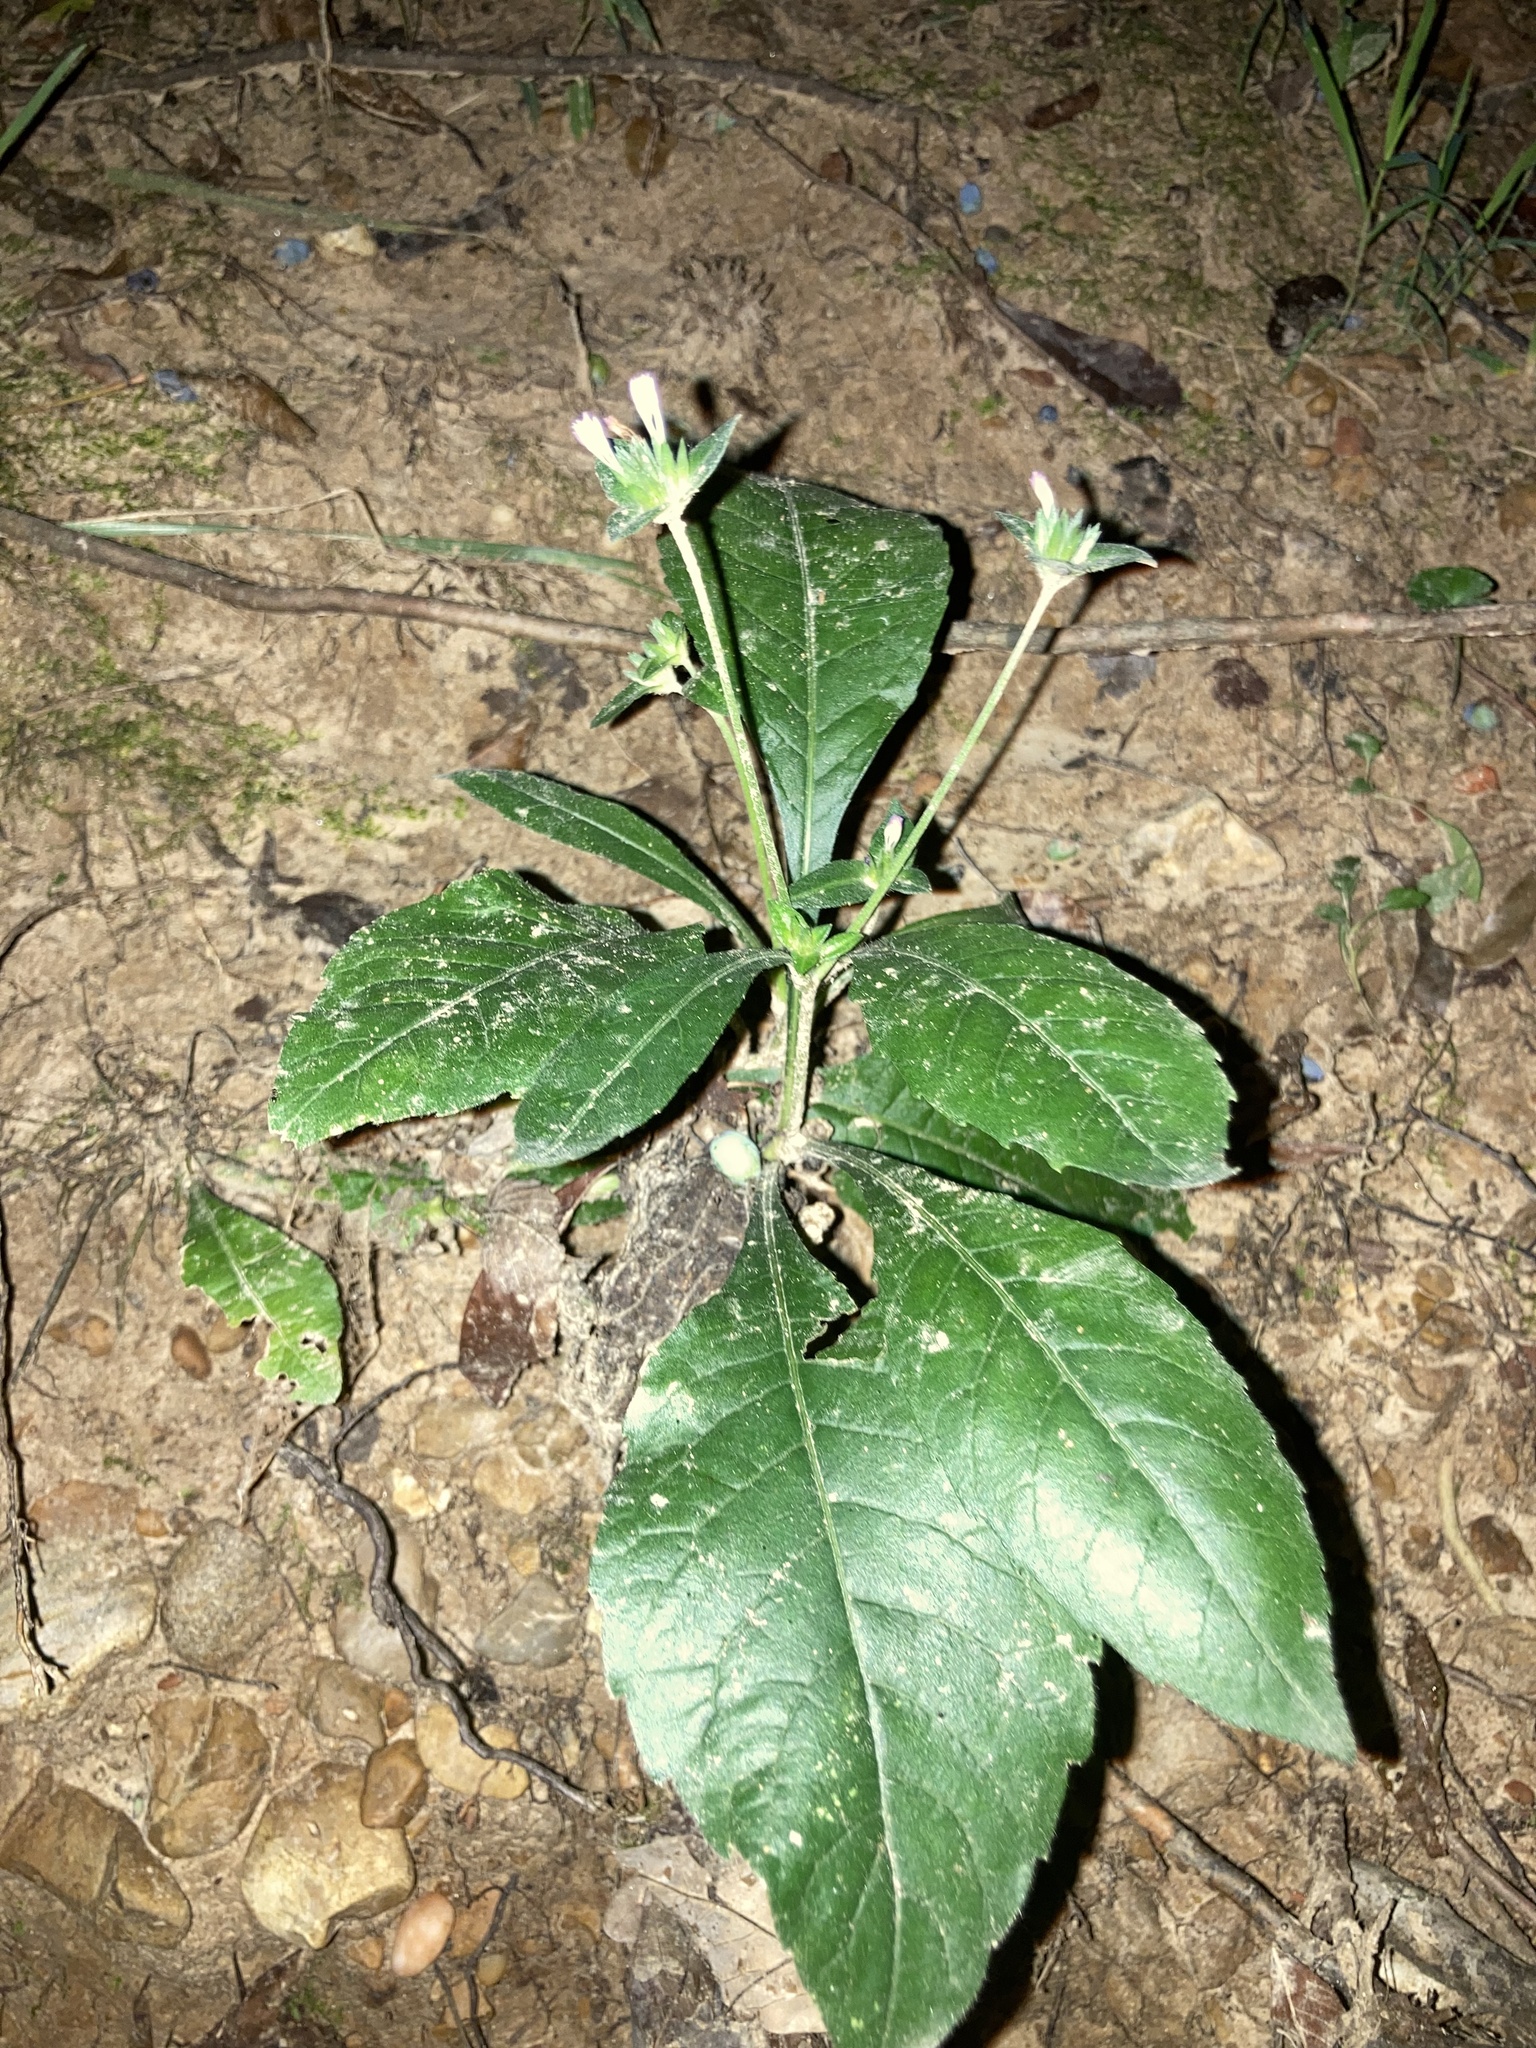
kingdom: Plantae
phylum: Tracheophyta
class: Magnoliopsida
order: Asterales
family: Asteraceae
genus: Elephantopus
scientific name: Elephantopus carolinianus
